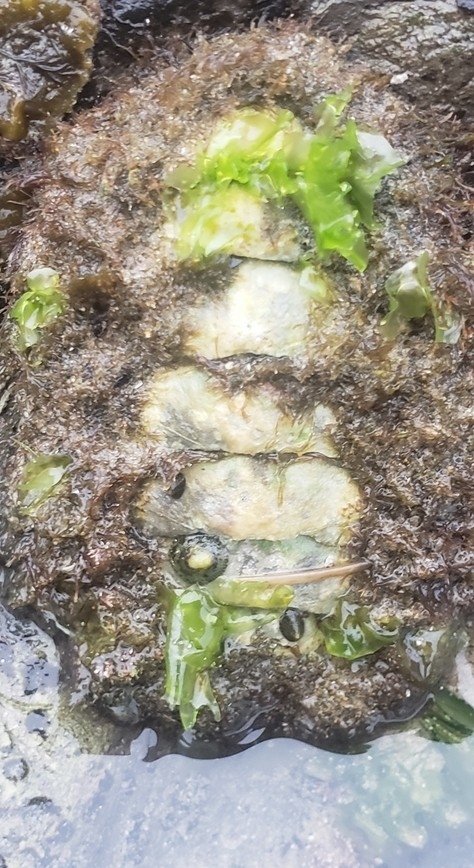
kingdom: Animalia
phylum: Mollusca
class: Polyplacophora
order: Chitonida
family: Mopaliidae
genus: Mopalia
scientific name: Mopalia muscosa
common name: Mossy chiton
